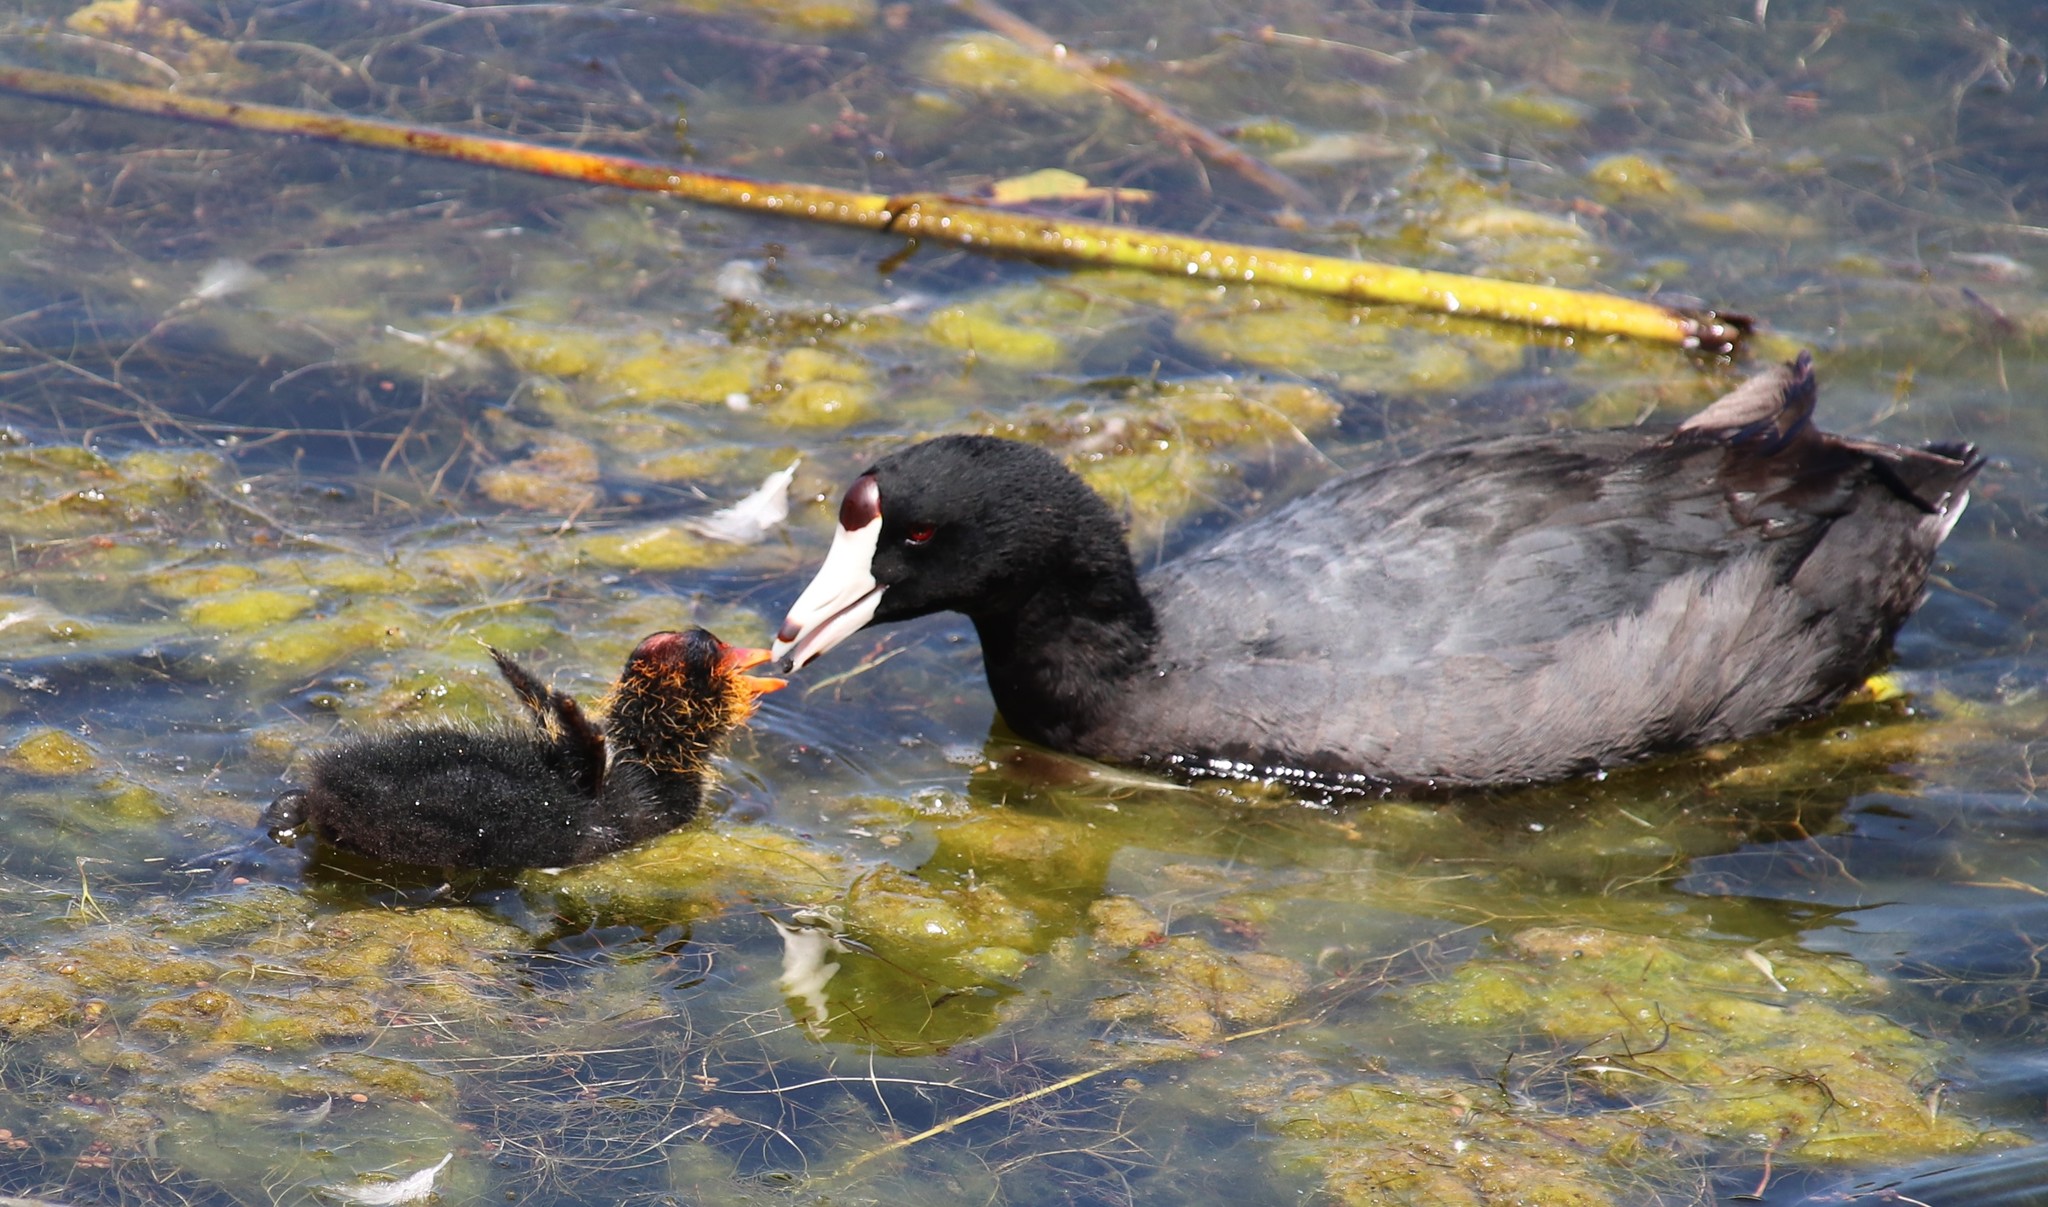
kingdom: Animalia
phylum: Chordata
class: Aves
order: Gruiformes
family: Rallidae
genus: Fulica
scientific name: Fulica americana
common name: American coot
